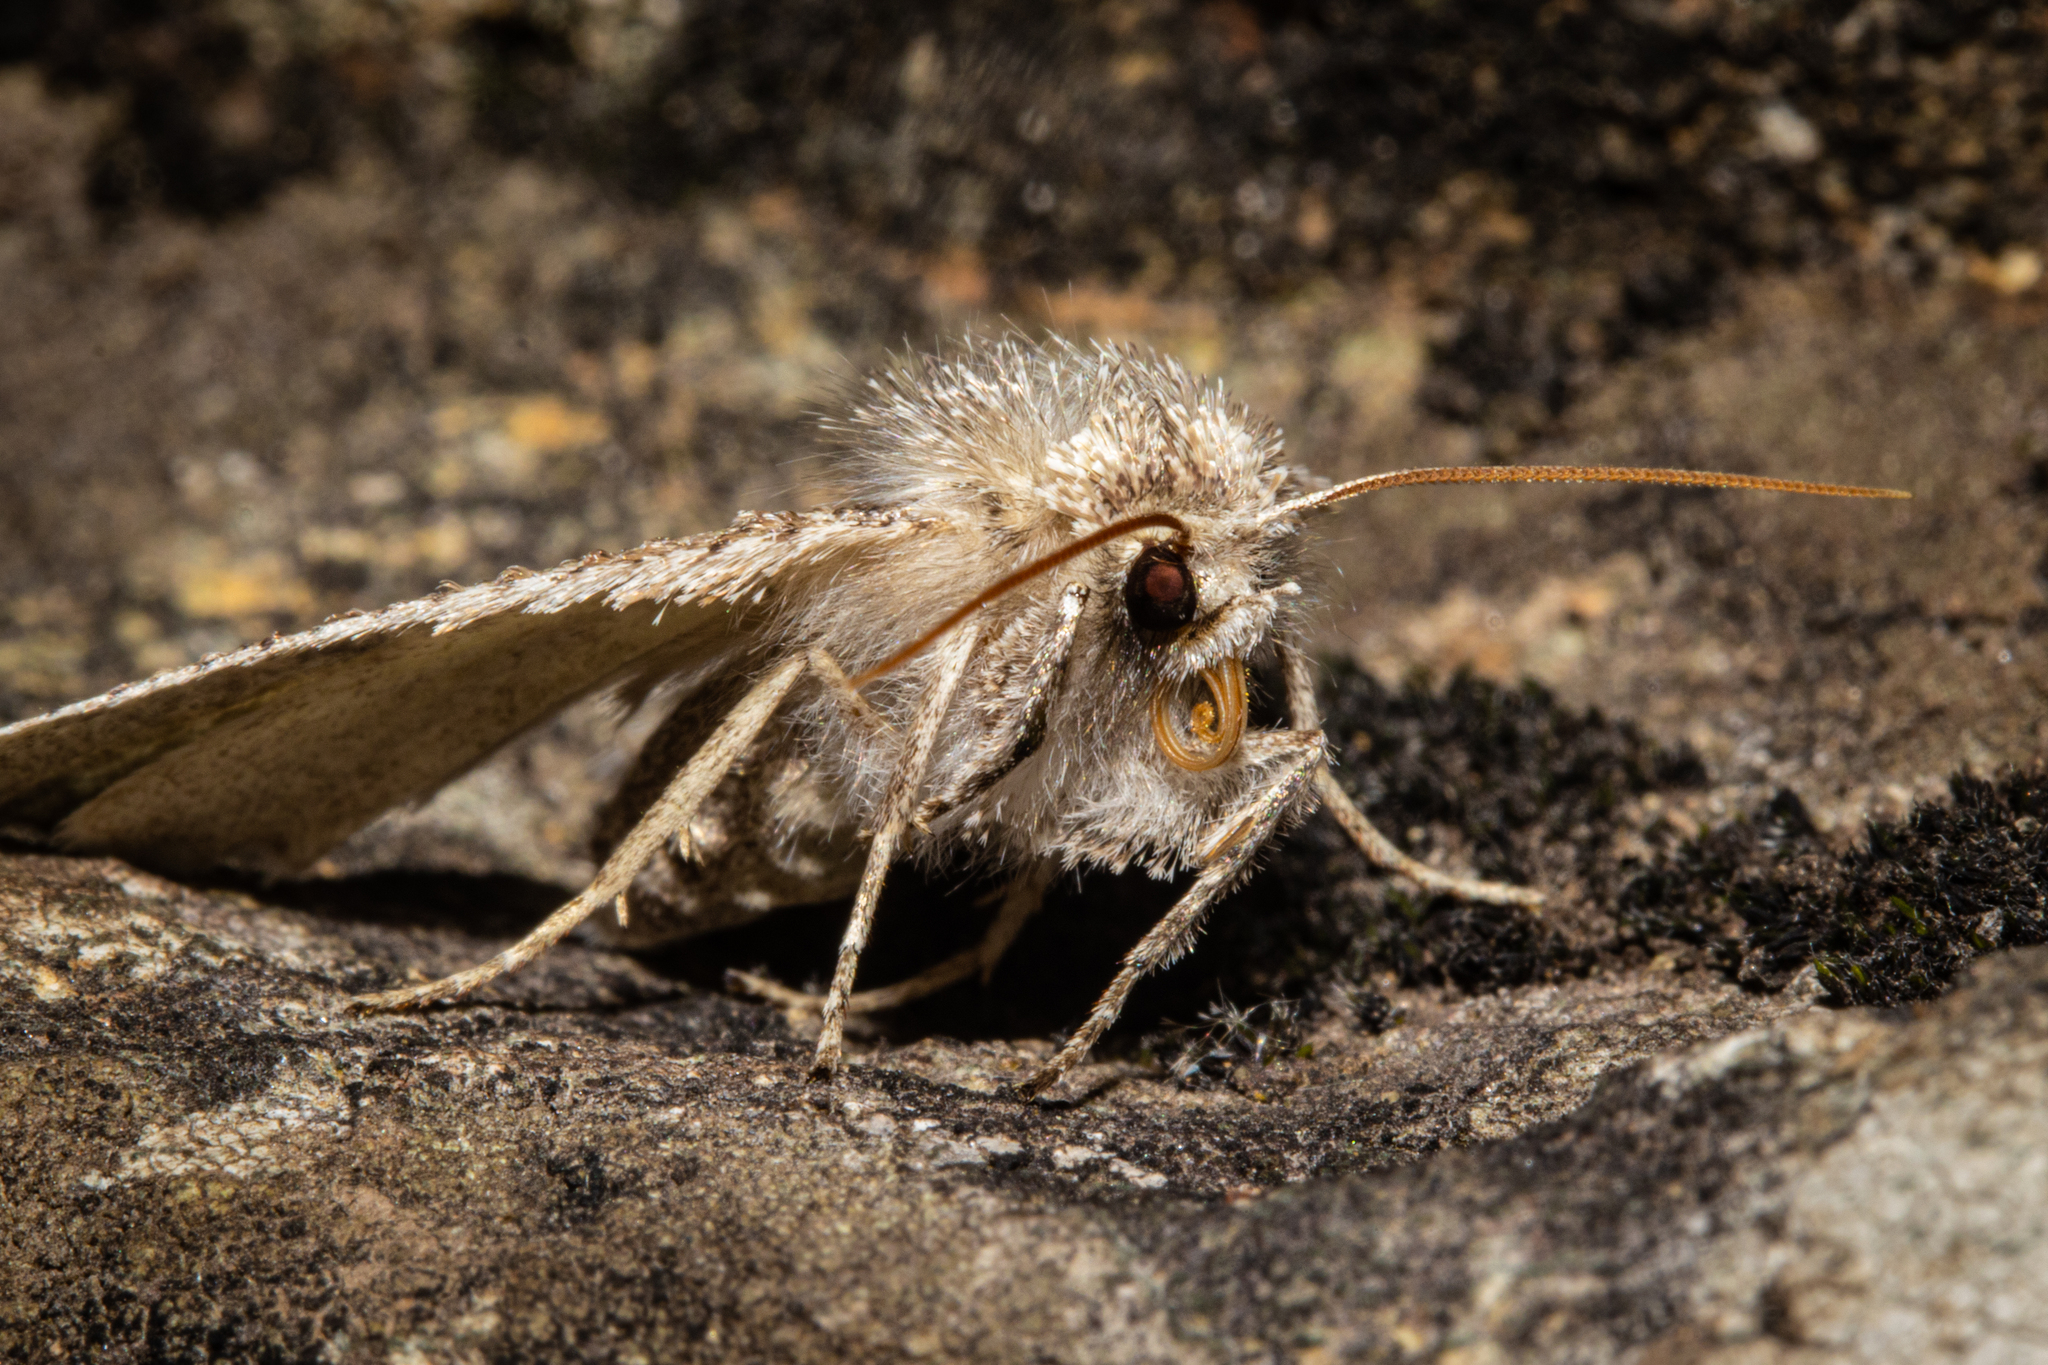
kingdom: Animalia
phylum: Arthropoda
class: Insecta
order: Lepidoptera
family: Geometridae
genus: Declana
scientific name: Declana floccosa
